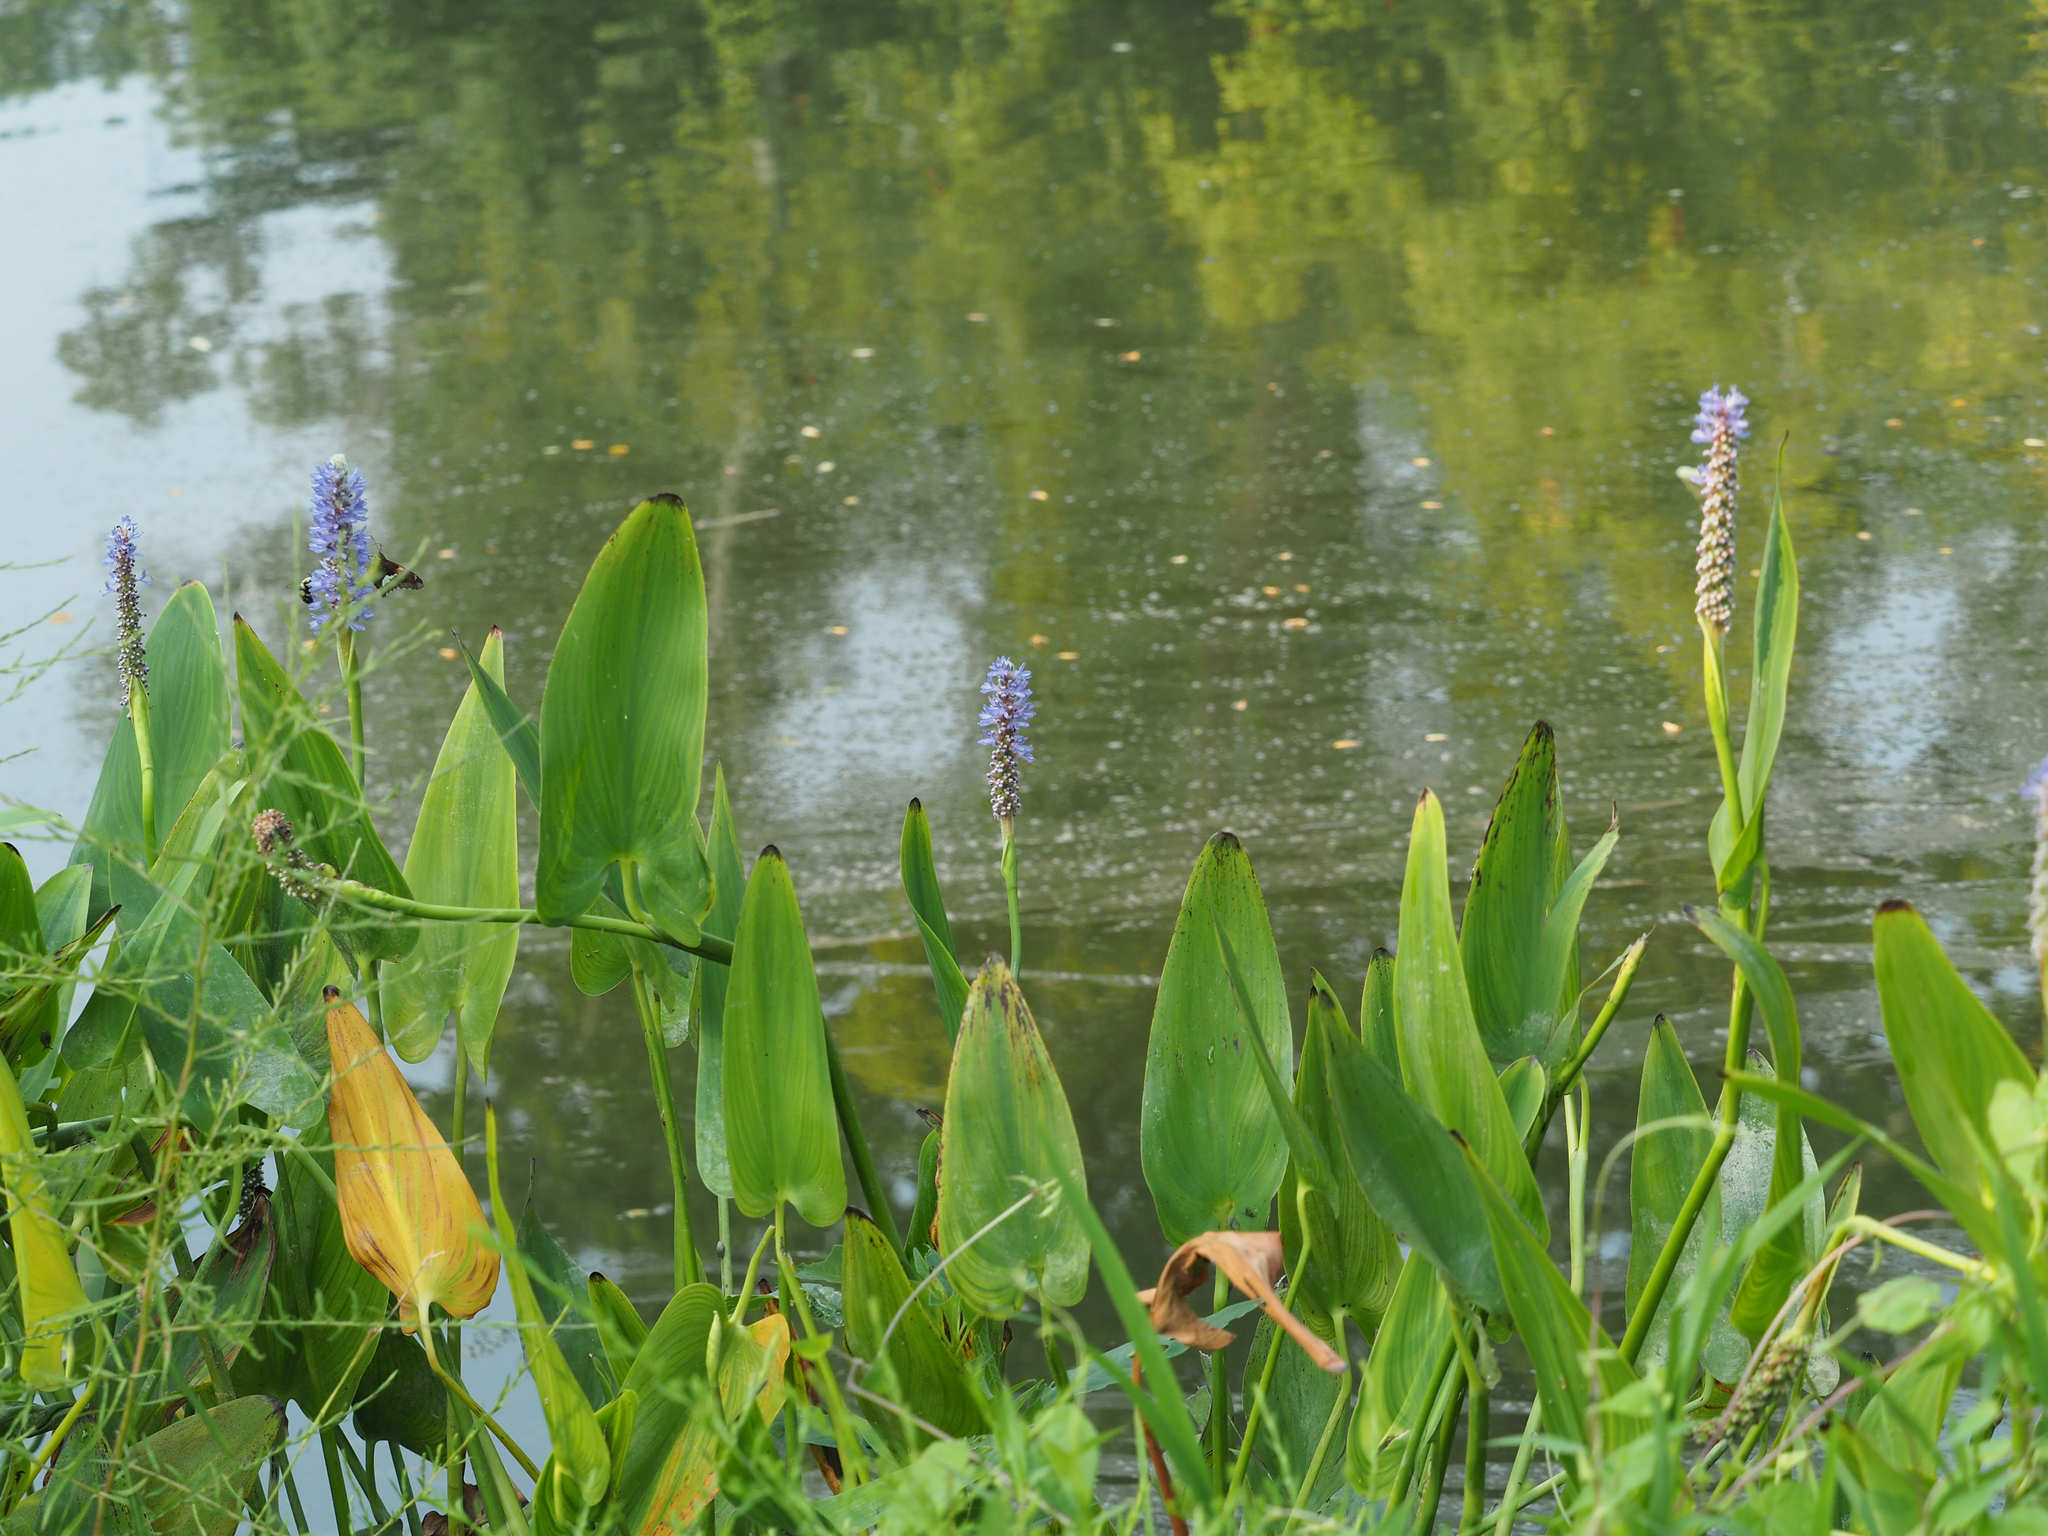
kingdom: Plantae
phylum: Tracheophyta
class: Liliopsida
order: Commelinales
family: Pontederiaceae
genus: Pontederia
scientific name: Pontederia cordata
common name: Pickerelweed
